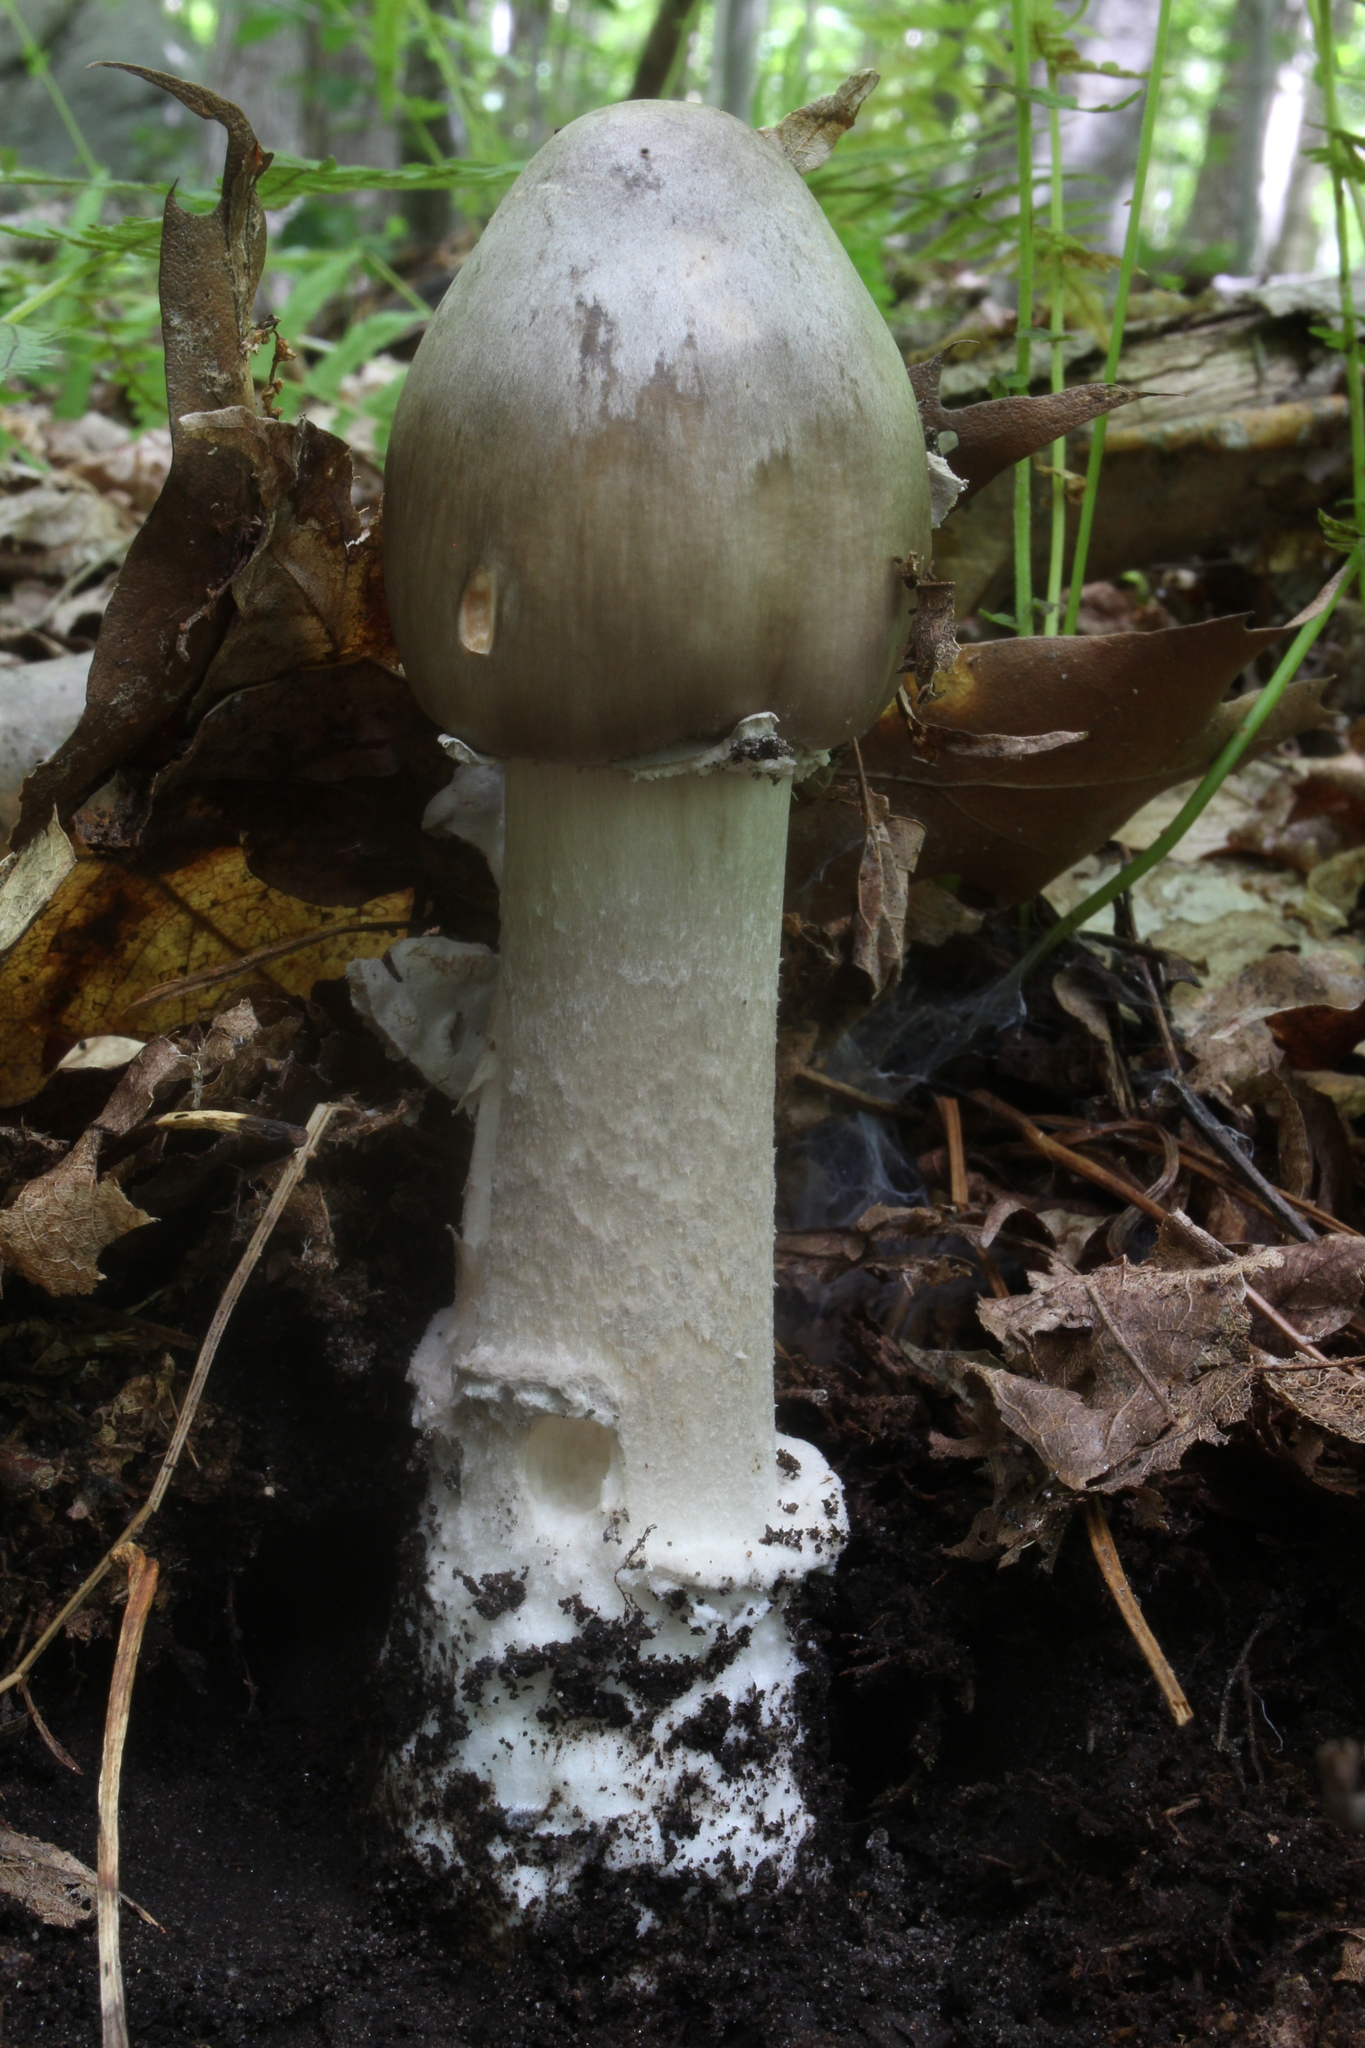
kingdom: Fungi
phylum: Basidiomycota
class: Agaricomycetes
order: Agaricales
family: Amanitaceae
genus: Amanita
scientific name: Amanita submaculata
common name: Ball gown amanita
